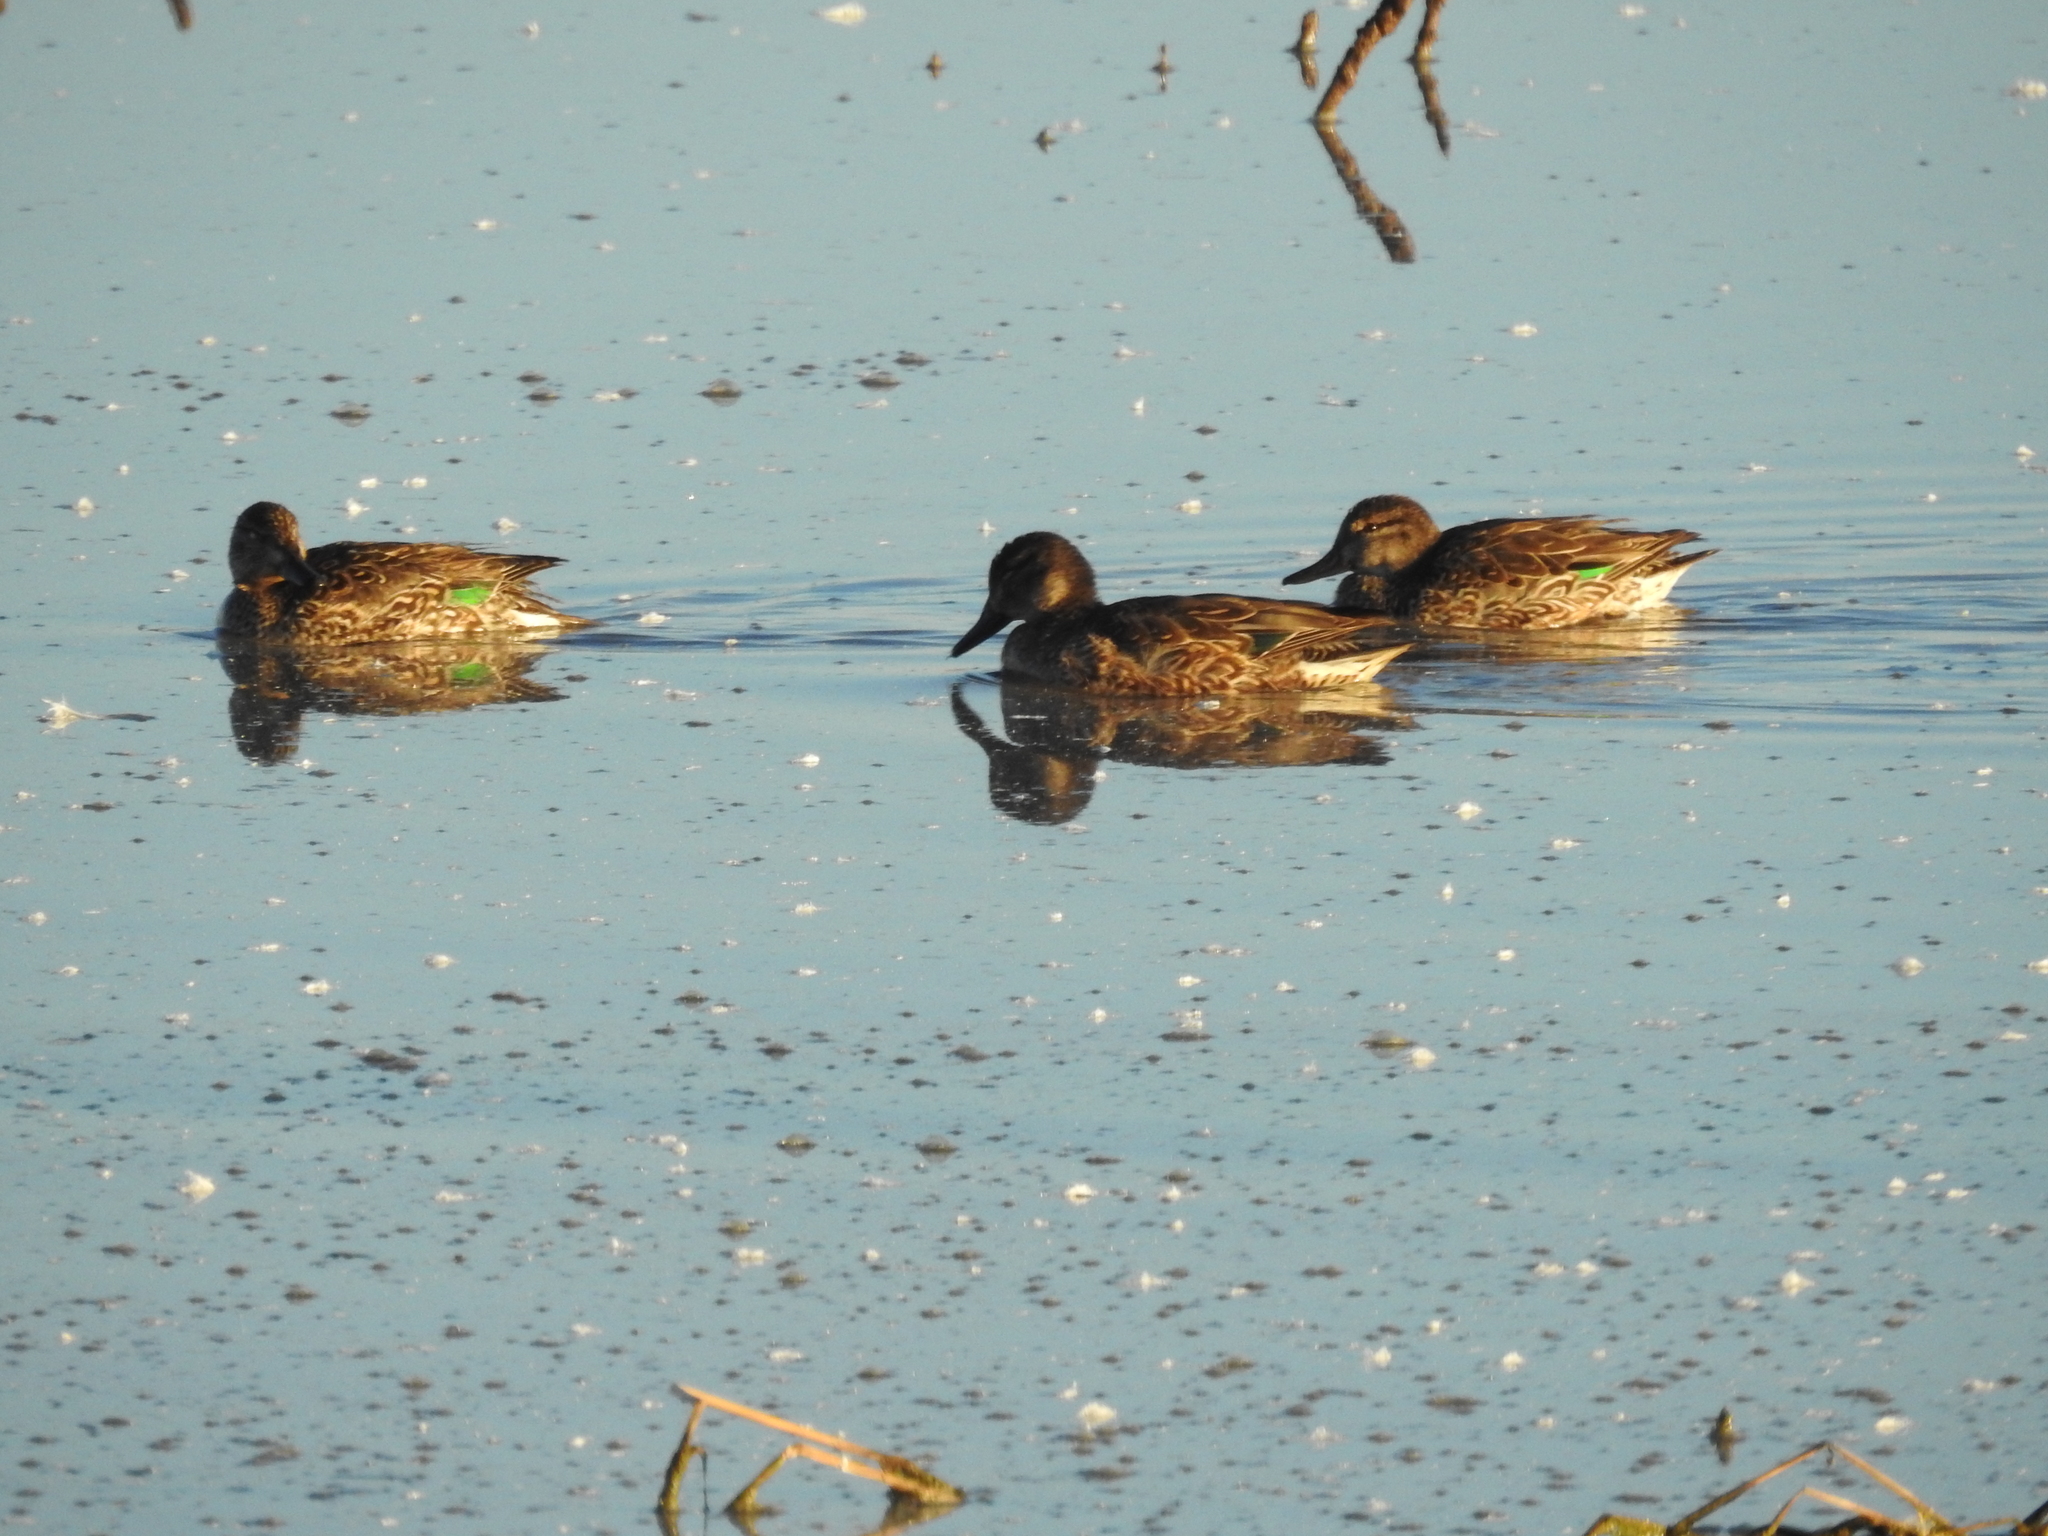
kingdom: Animalia
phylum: Chordata
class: Aves
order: Anseriformes
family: Anatidae
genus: Anas
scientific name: Anas crecca
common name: Eurasian teal
